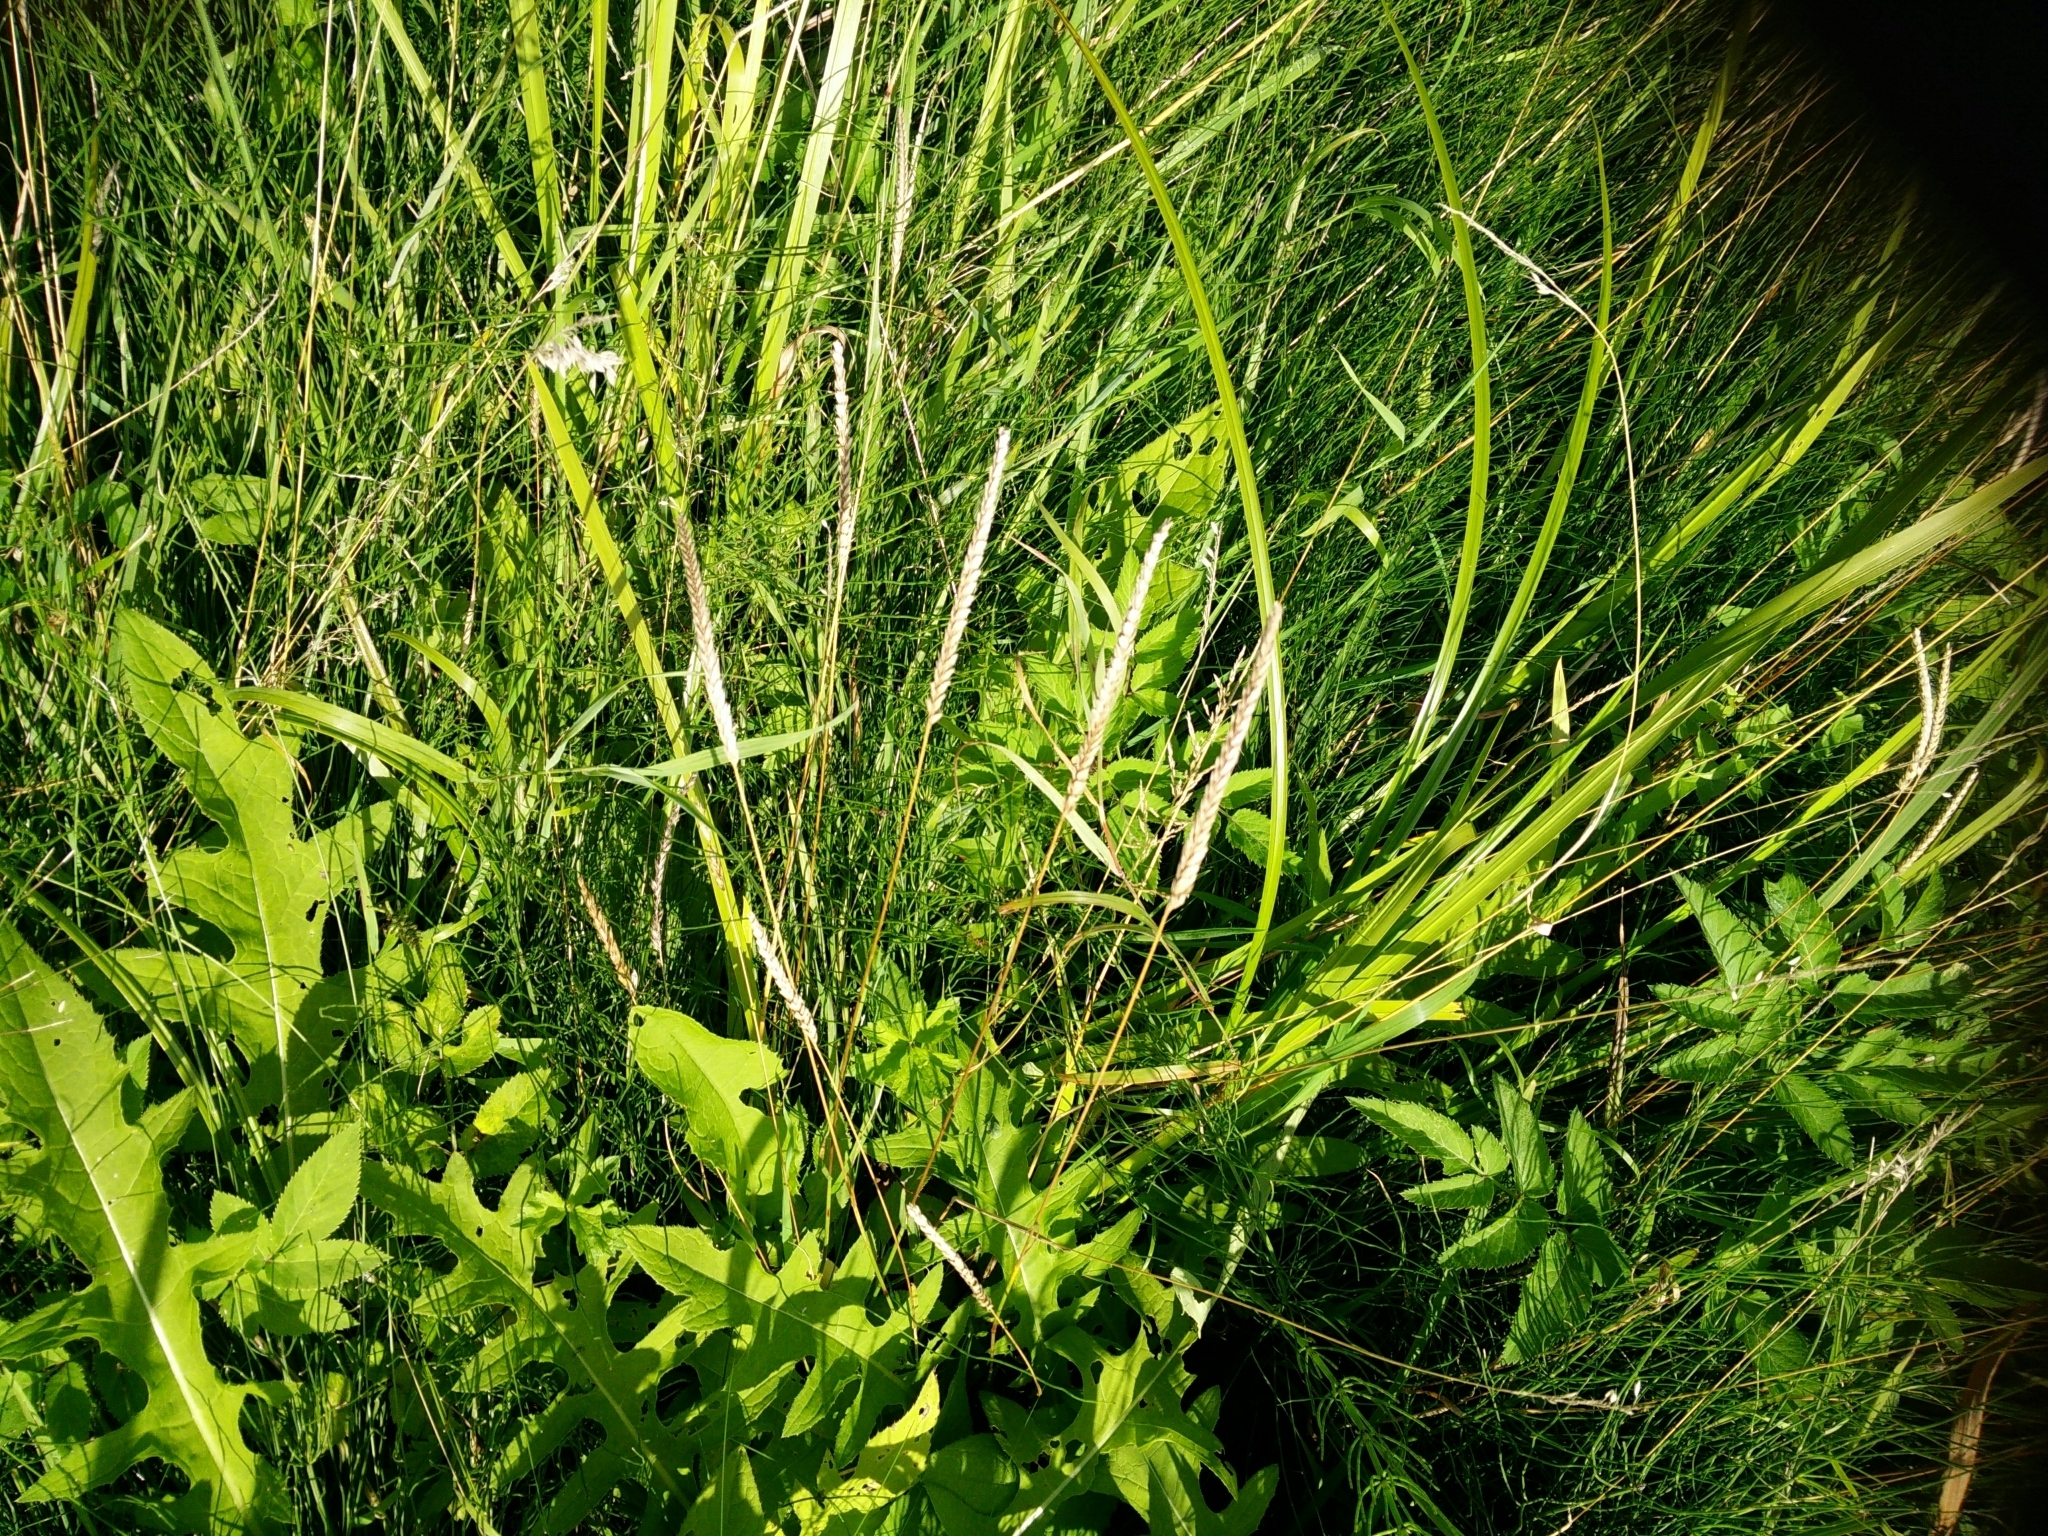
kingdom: Plantae
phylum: Tracheophyta
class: Liliopsida
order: Poales
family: Poaceae
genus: Cynosurus
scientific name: Cynosurus cristatus
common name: Crested dog's-tail
